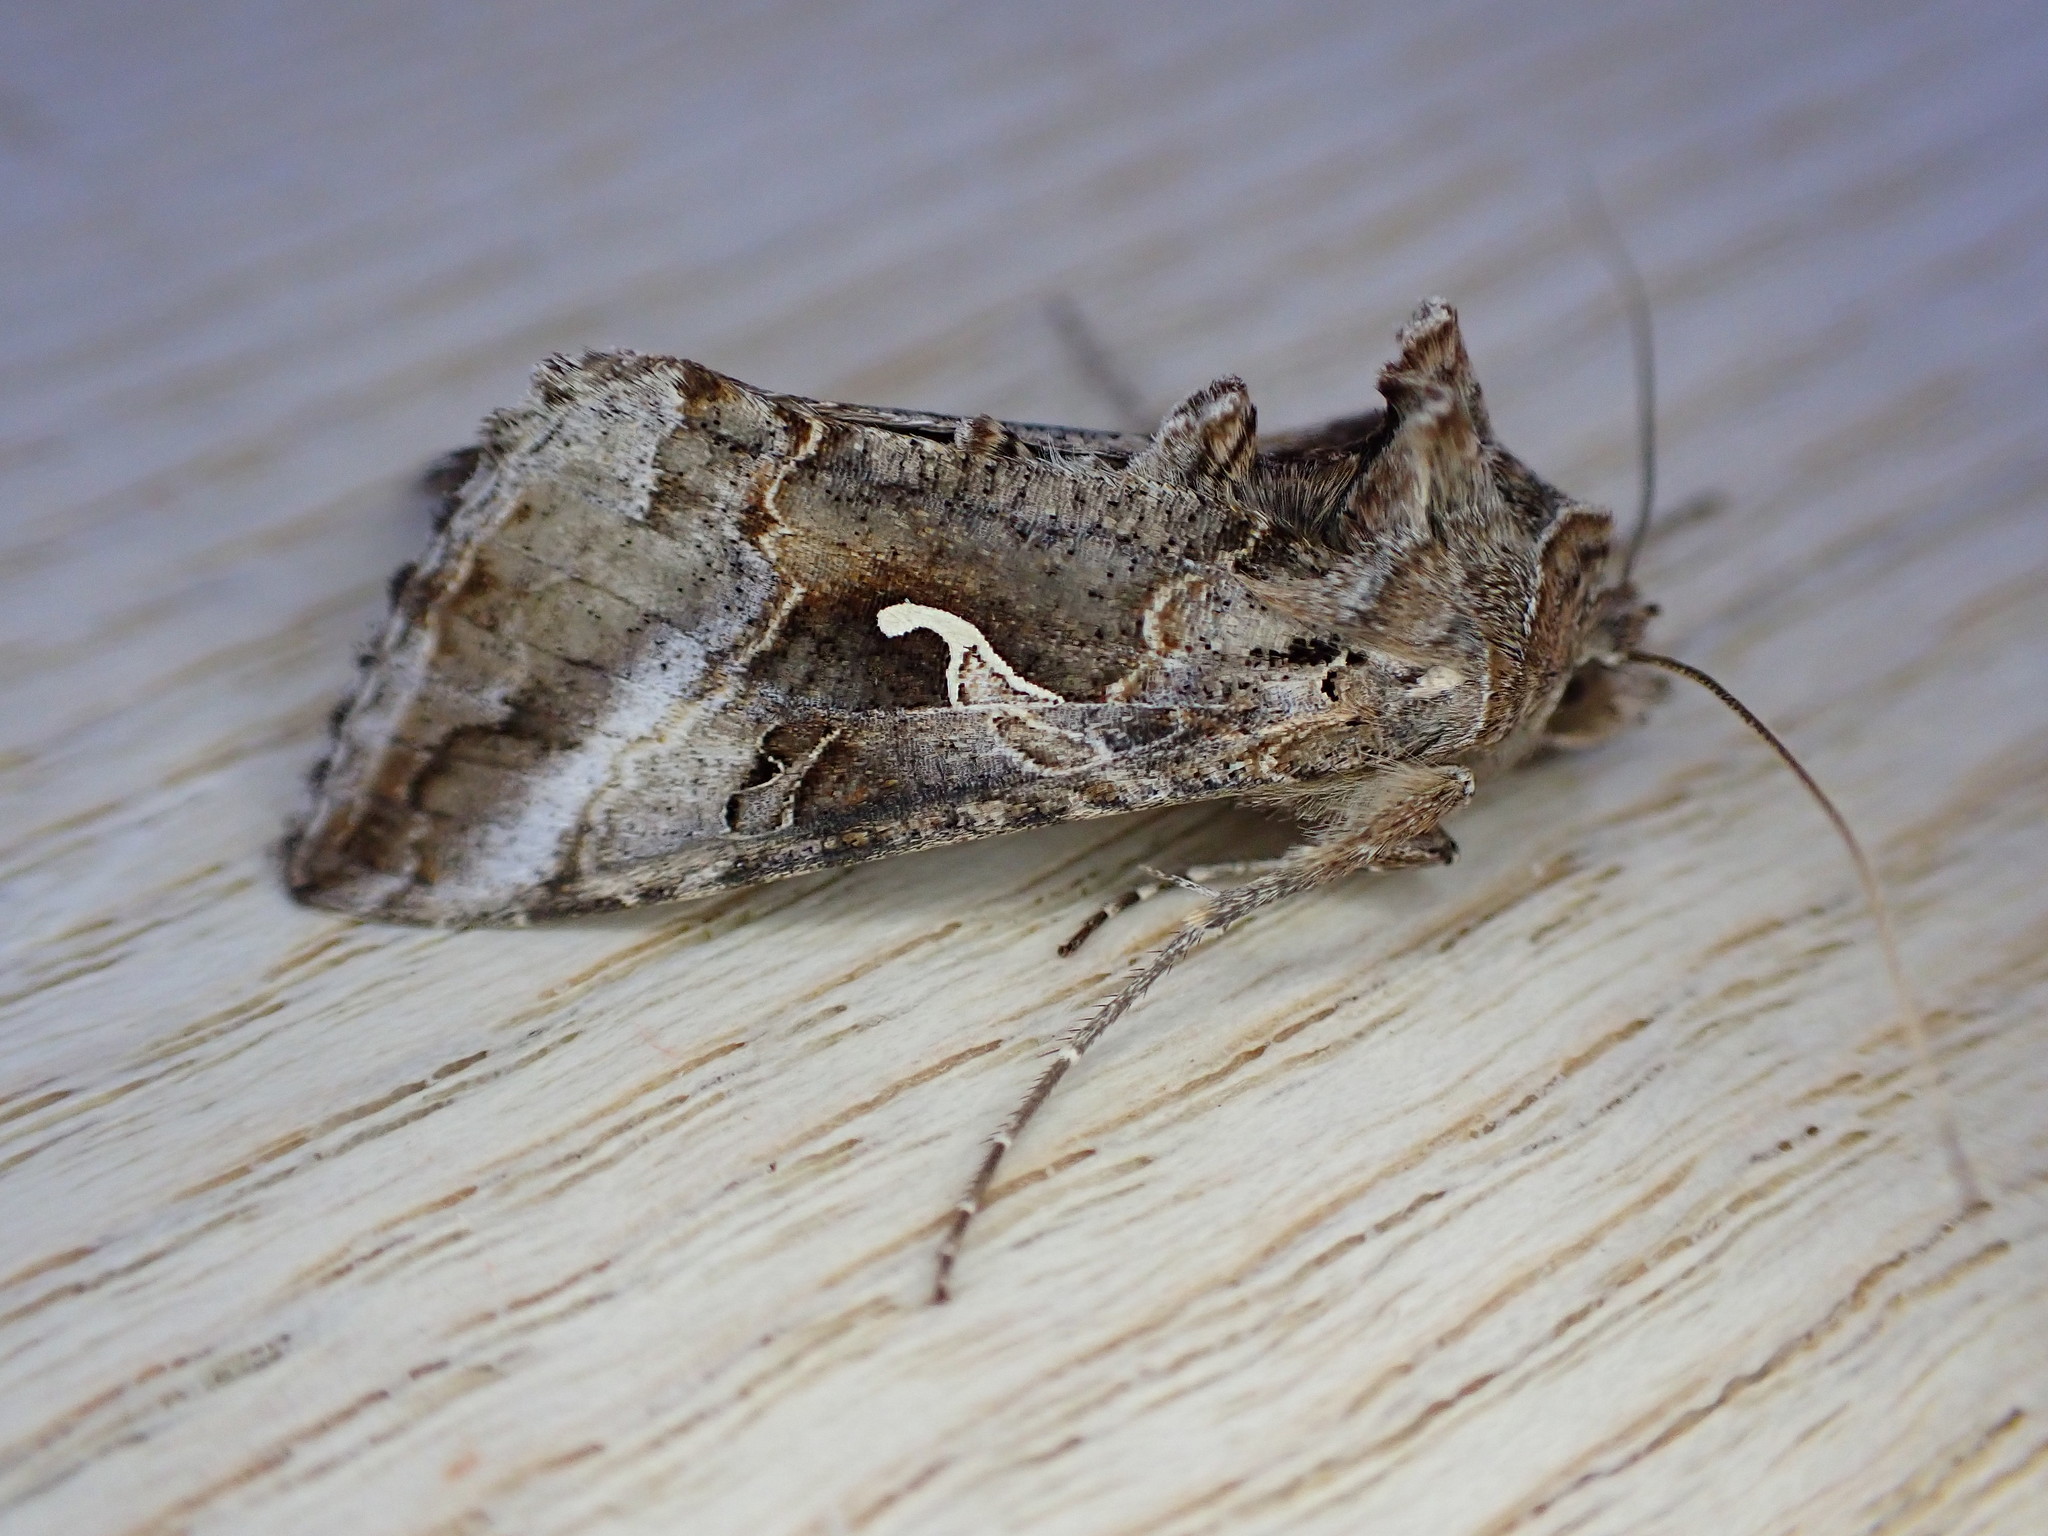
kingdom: Animalia
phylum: Arthropoda
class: Insecta
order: Lepidoptera
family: Noctuidae
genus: Autographa
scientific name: Autographa gamma
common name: Silver y
